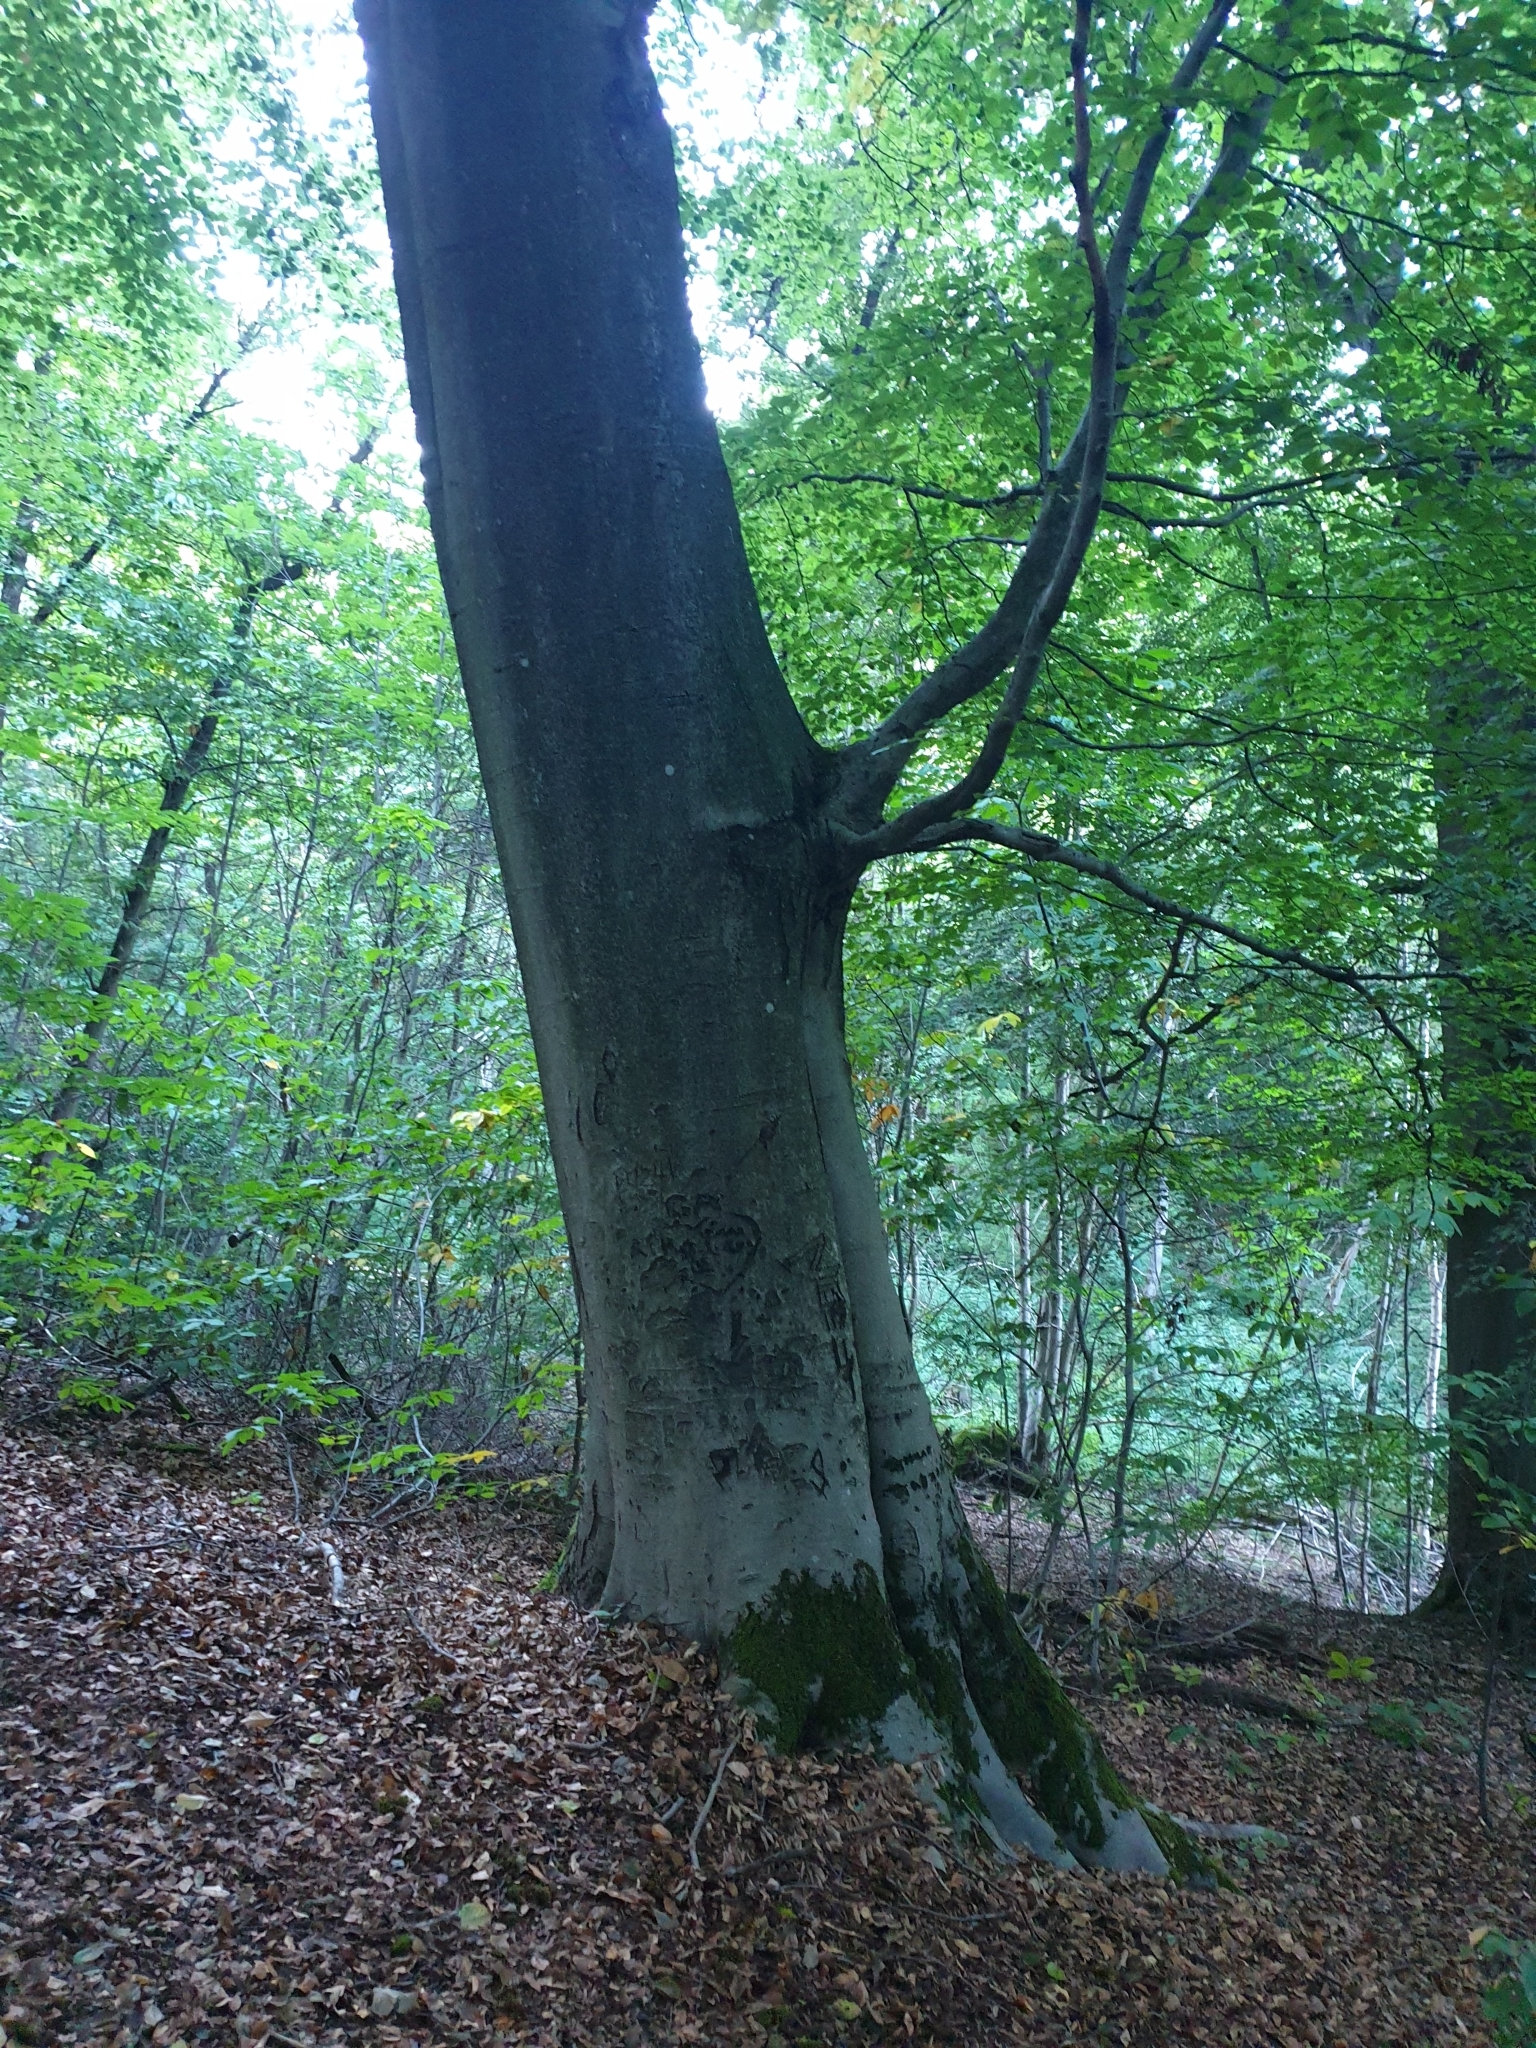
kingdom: Plantae
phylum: Tracheophyta
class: Magnoliopsida
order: Fagales
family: Fagaceae
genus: Fagus
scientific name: Fagus sylvatica
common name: Beech
